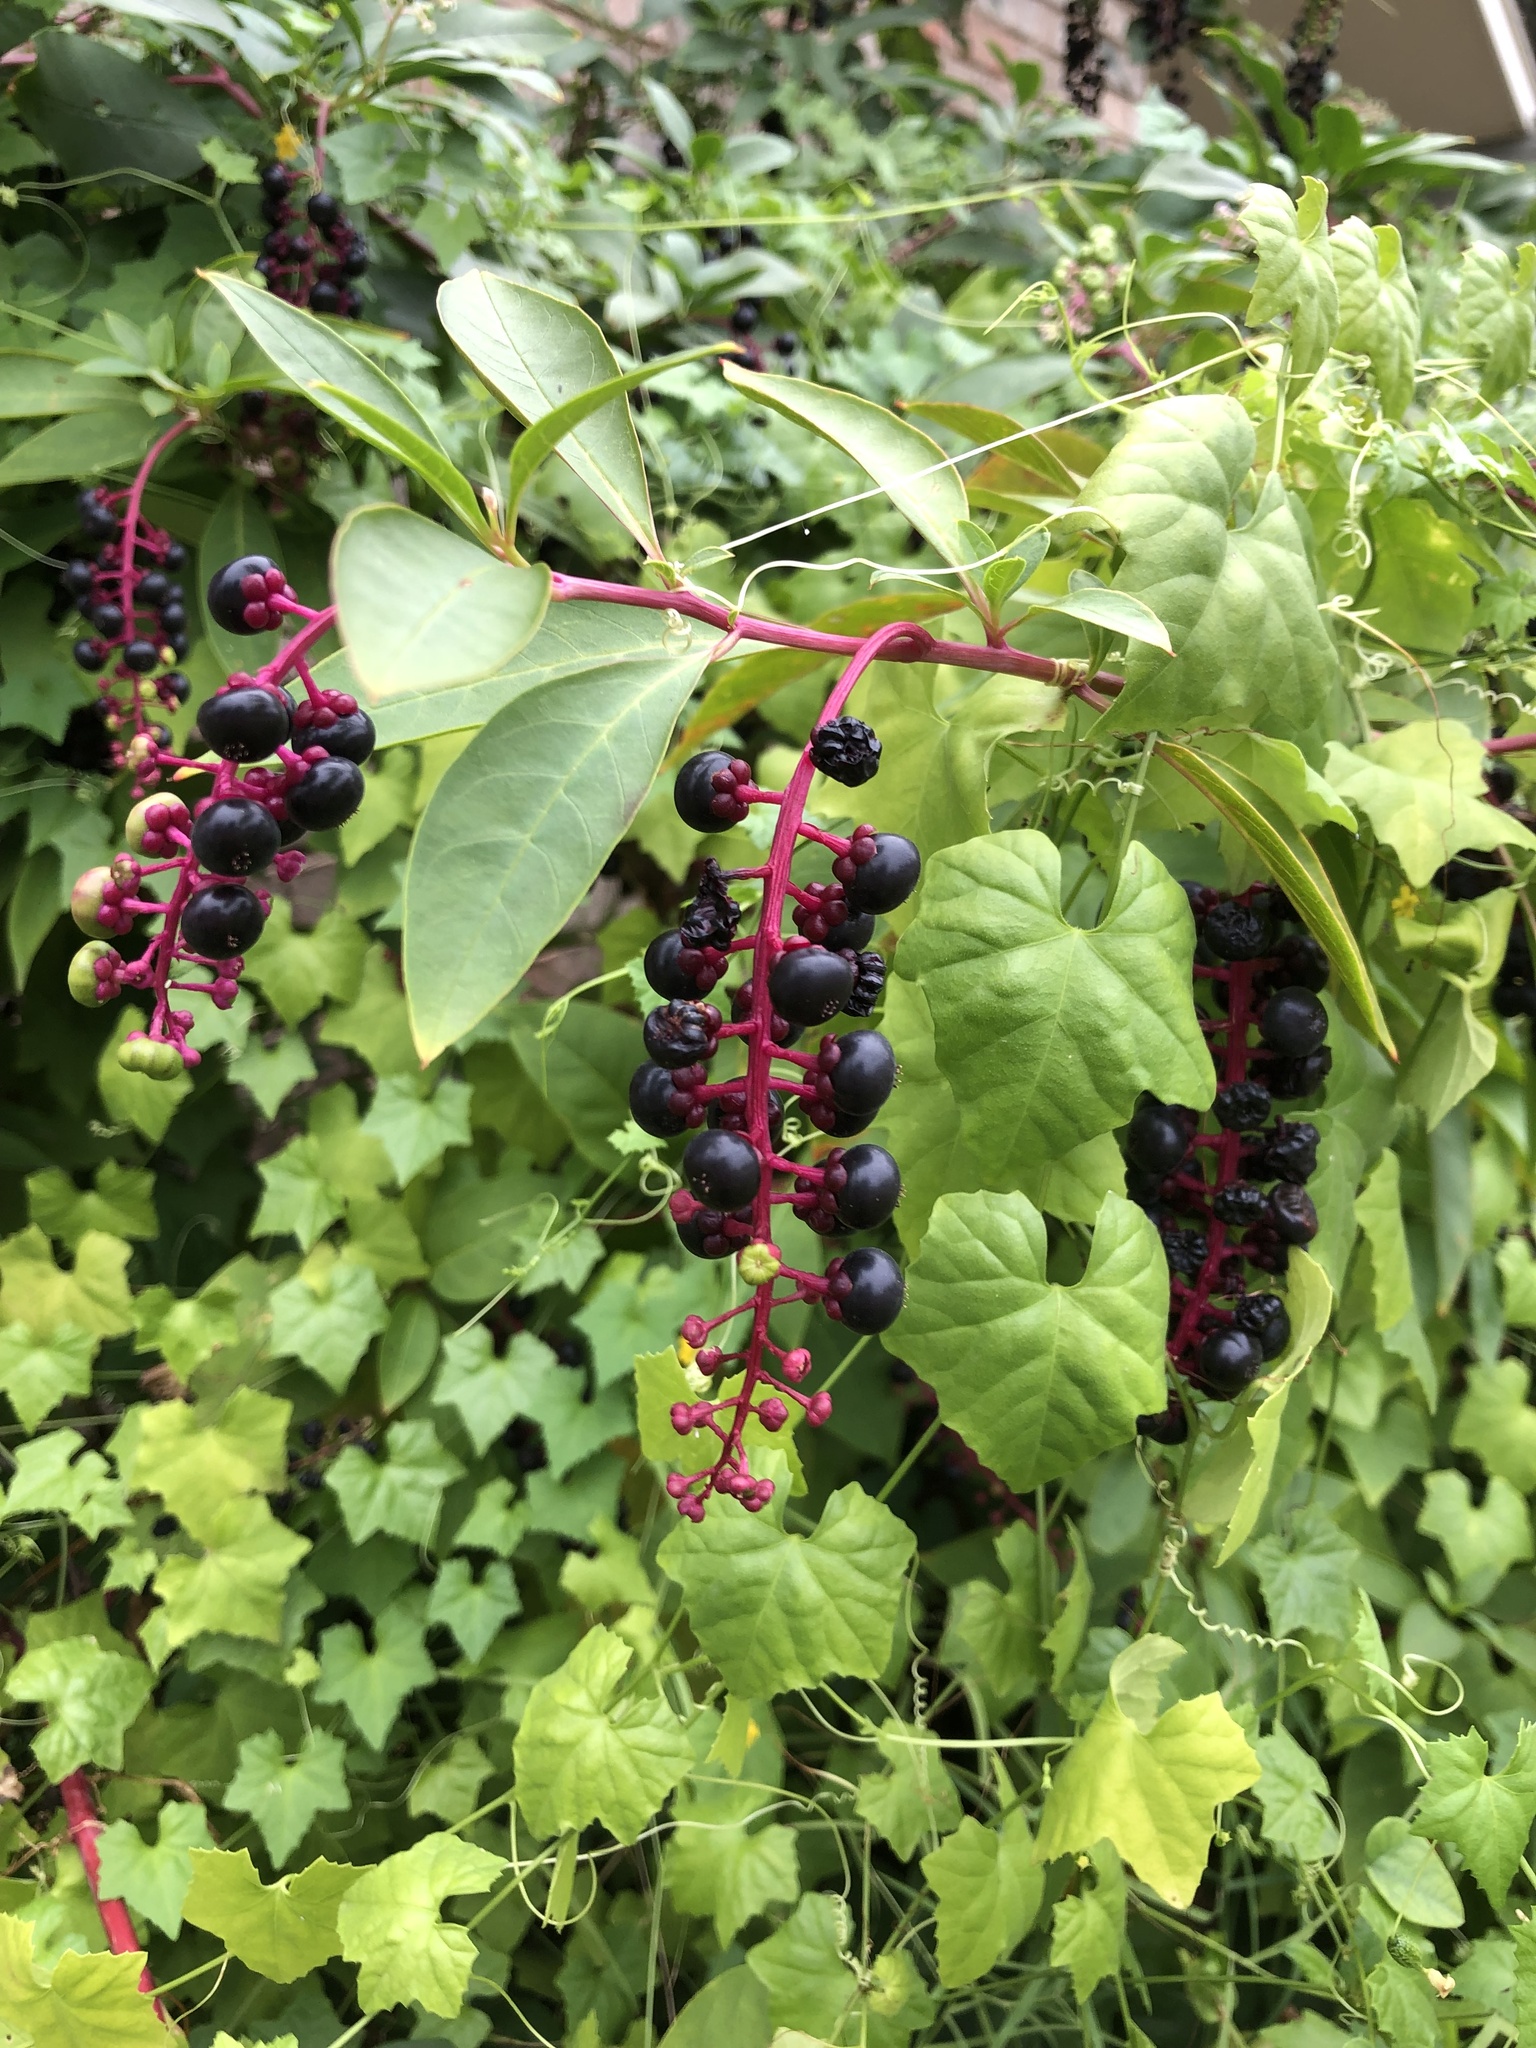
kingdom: Plantae
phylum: Tracheophyta
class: Magnoliopsida
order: Caryophyllales
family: Phytolaccaceae
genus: Phytolacca
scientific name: Phytolacca americana
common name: American pokeweed
